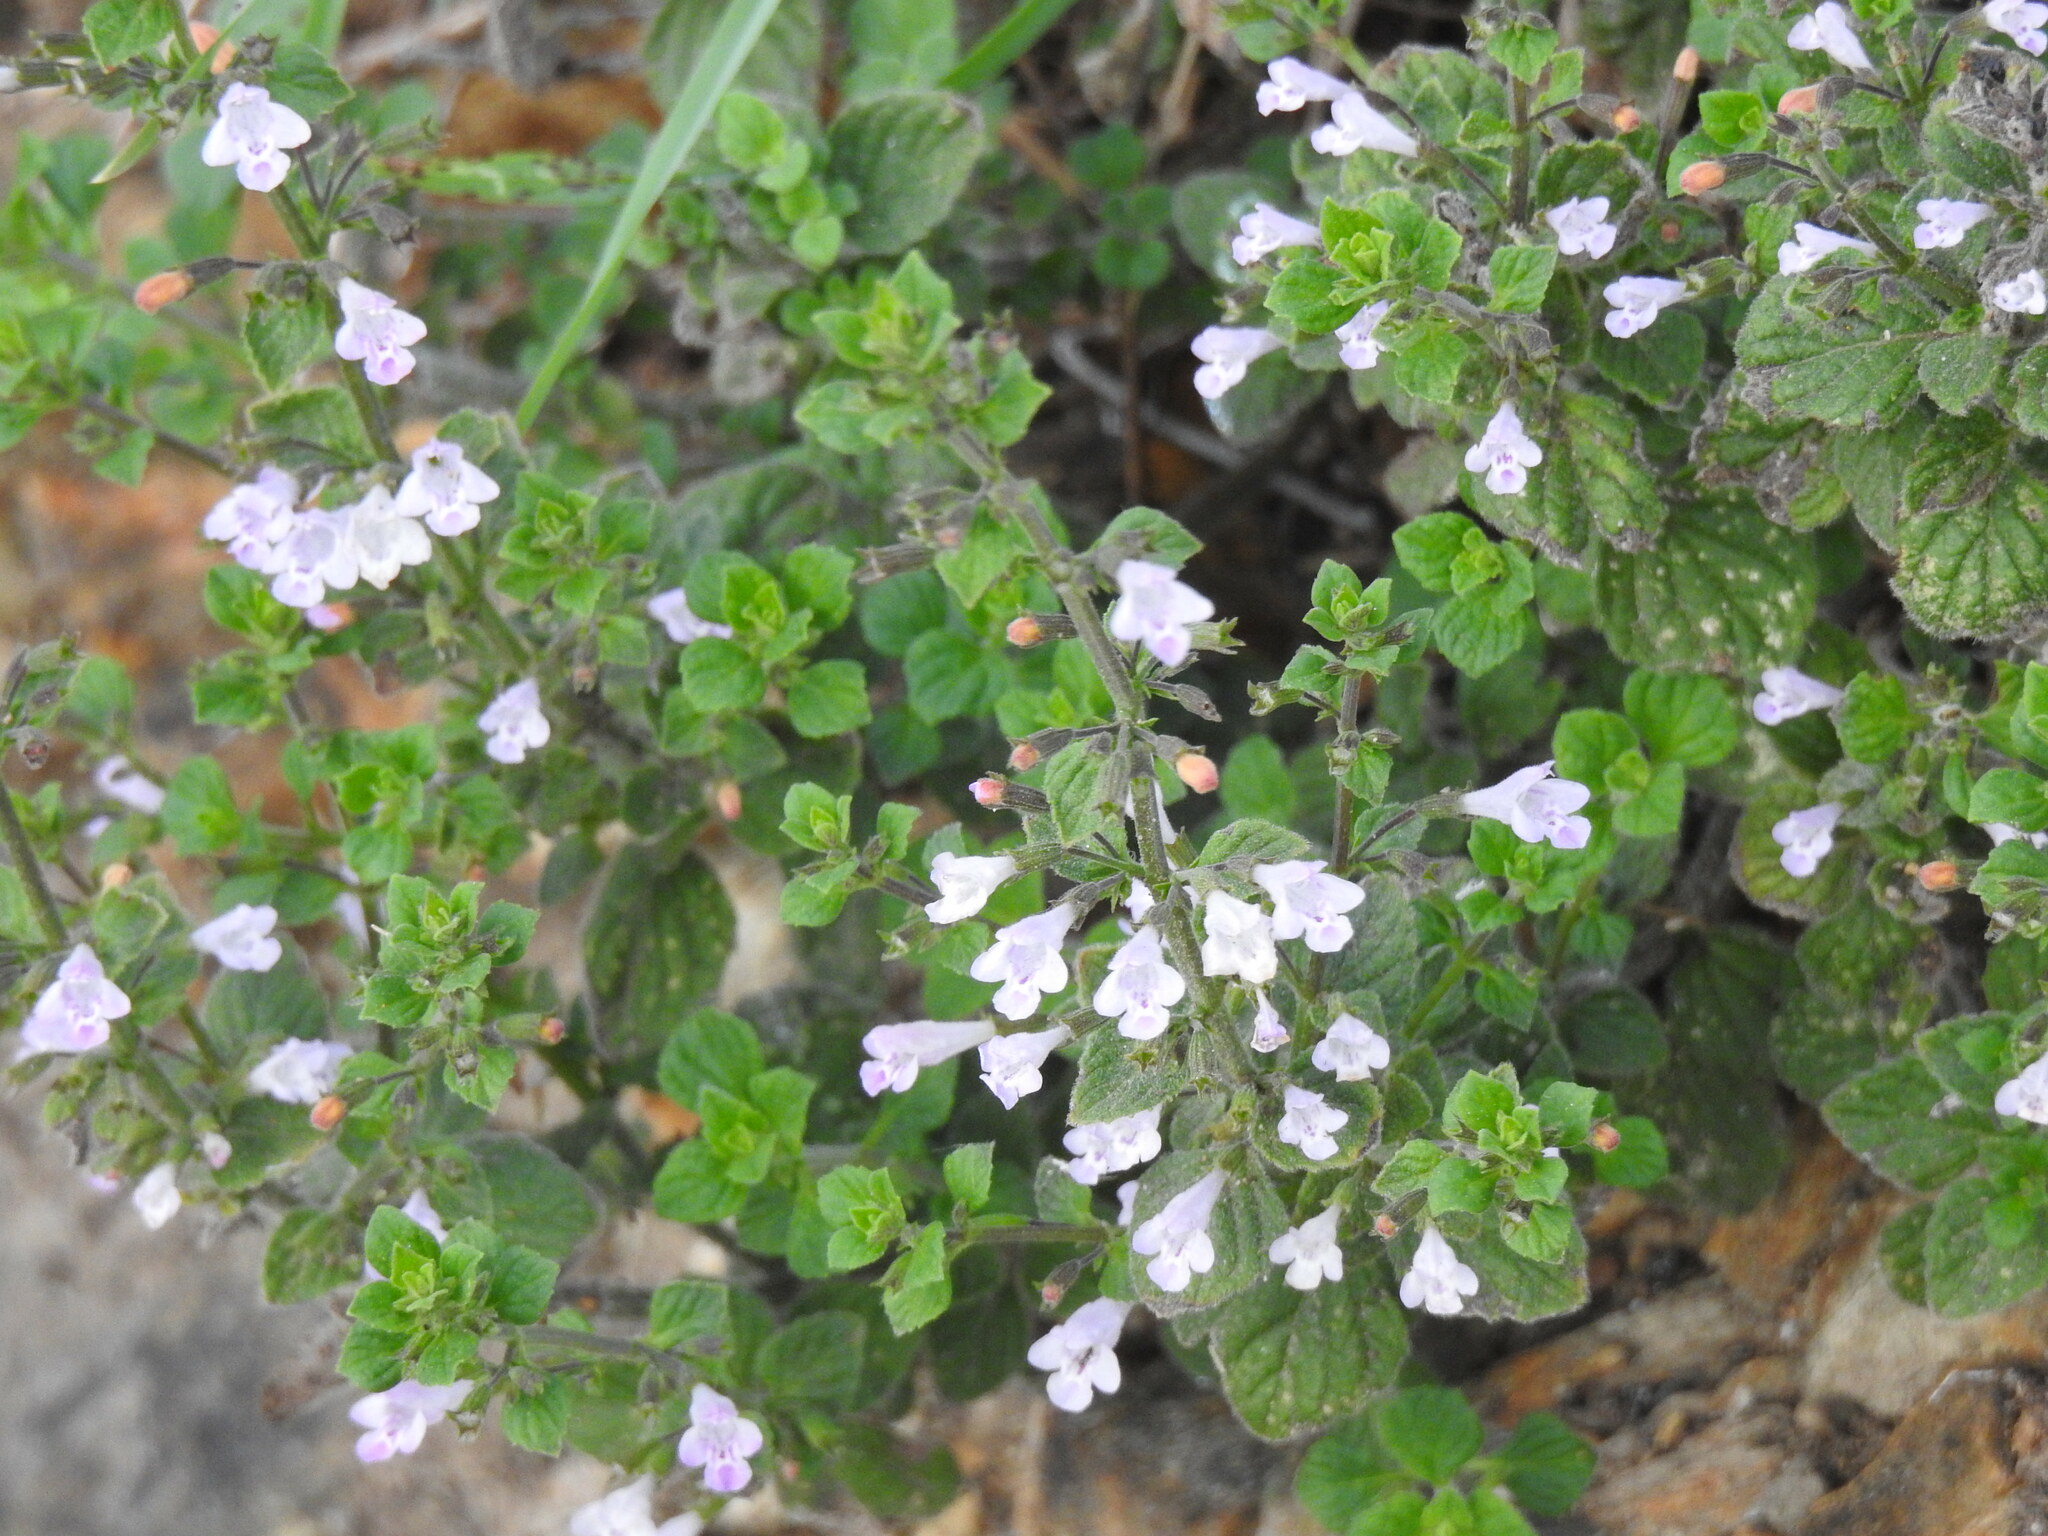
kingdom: Plantae
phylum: Tracheophyta
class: Magnoliopsida
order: Lamiales
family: Lamiaceae
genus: Clinopodium
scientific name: Clinopodium nepeta
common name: Lesser calamint
